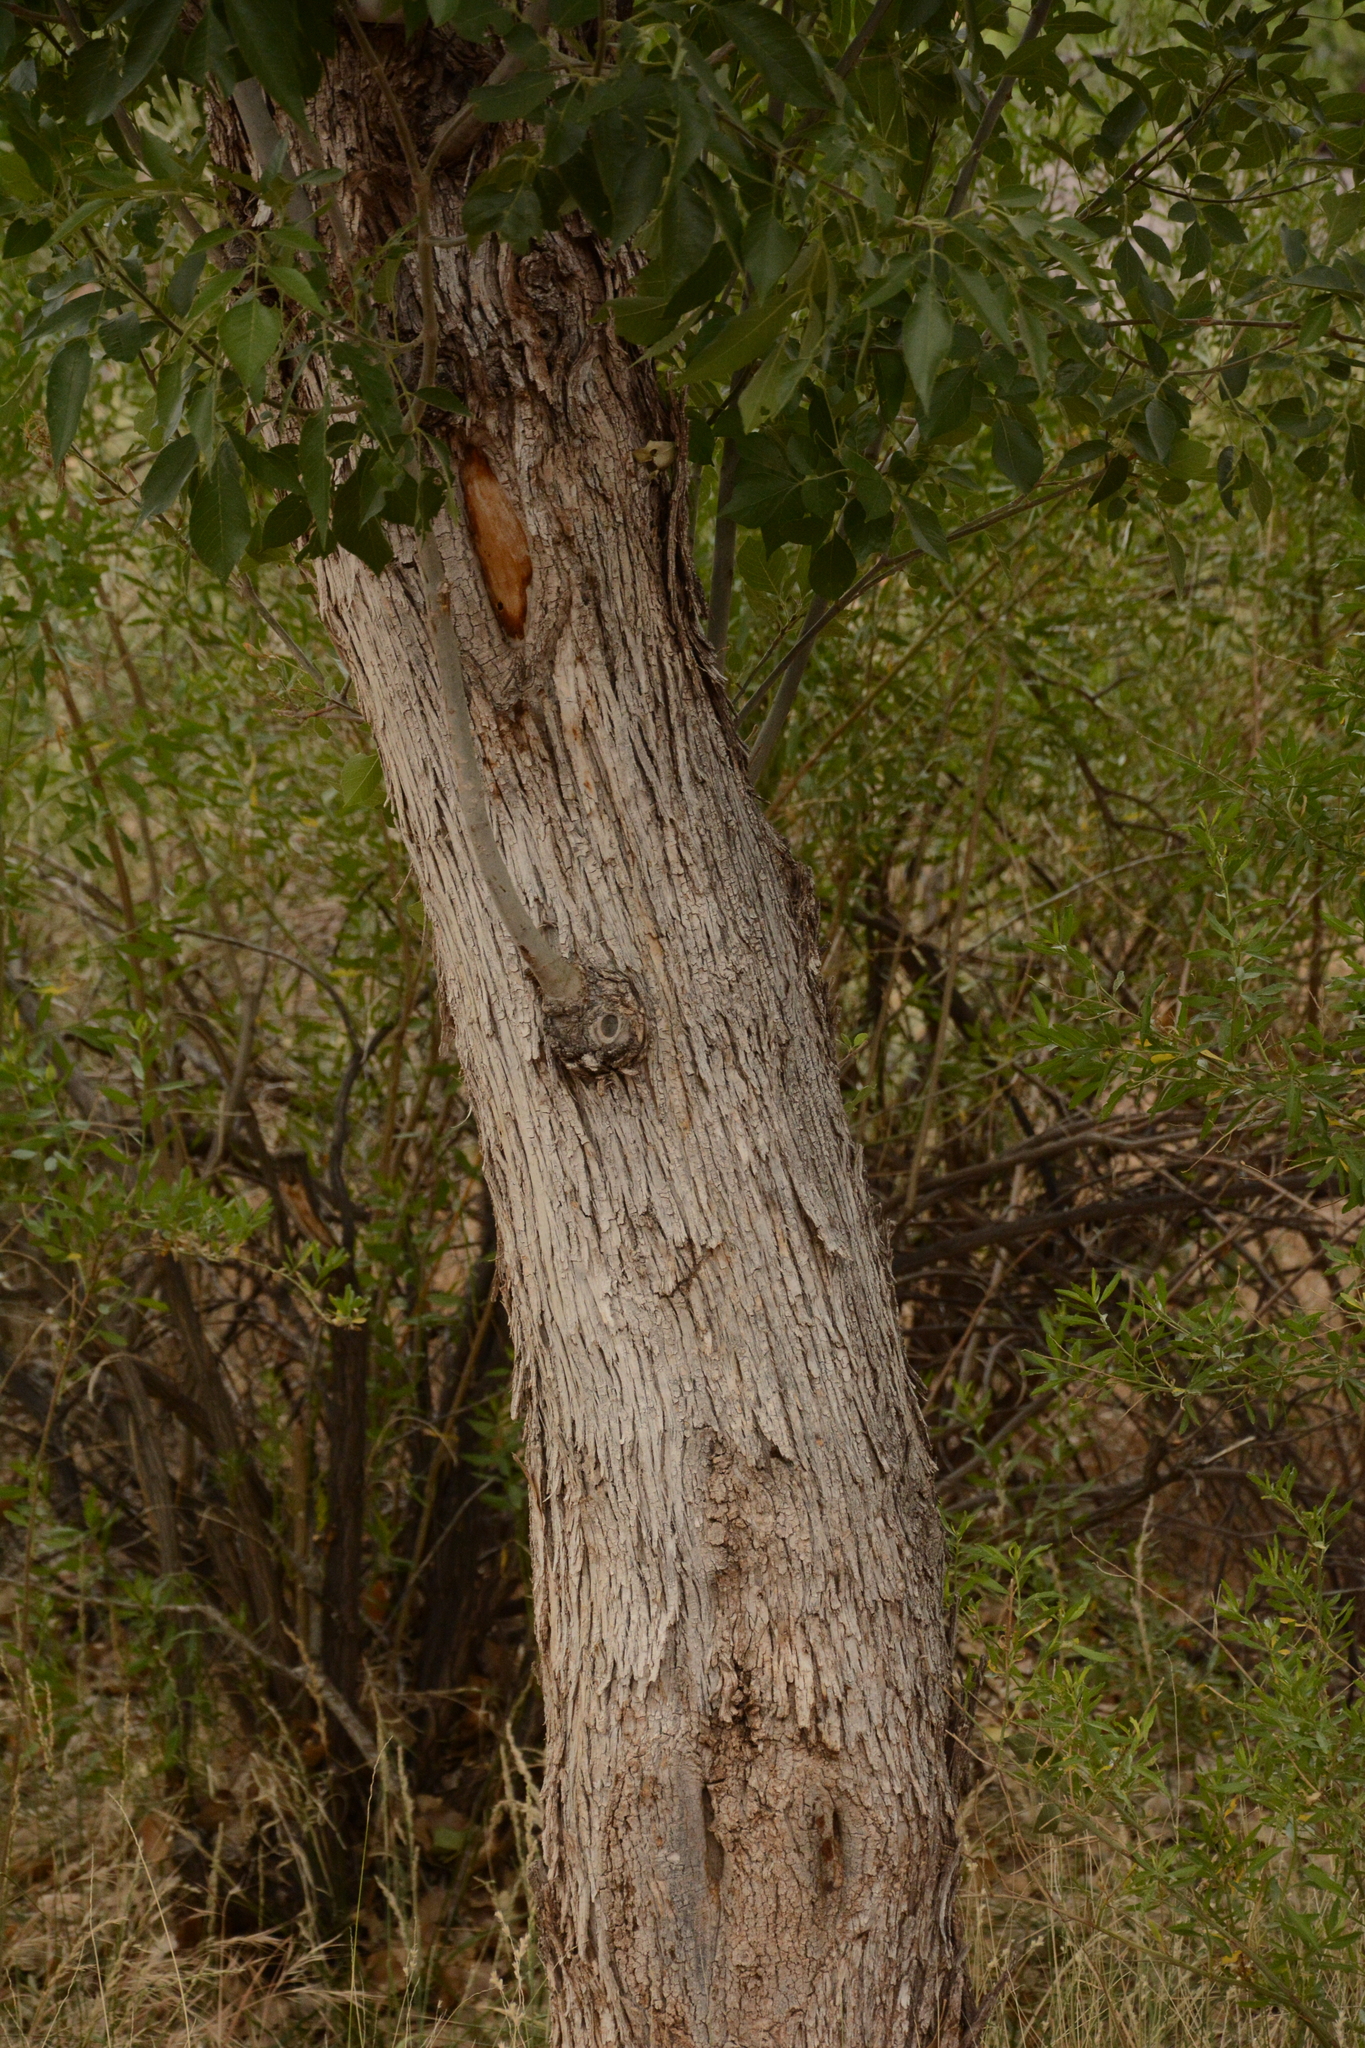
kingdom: Plantae
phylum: Tracheophyta
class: Magnoliopsida
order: Lamiales
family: Oleaceae
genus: Fraxinus
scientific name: Fraxinus velutina
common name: Arizon ash
